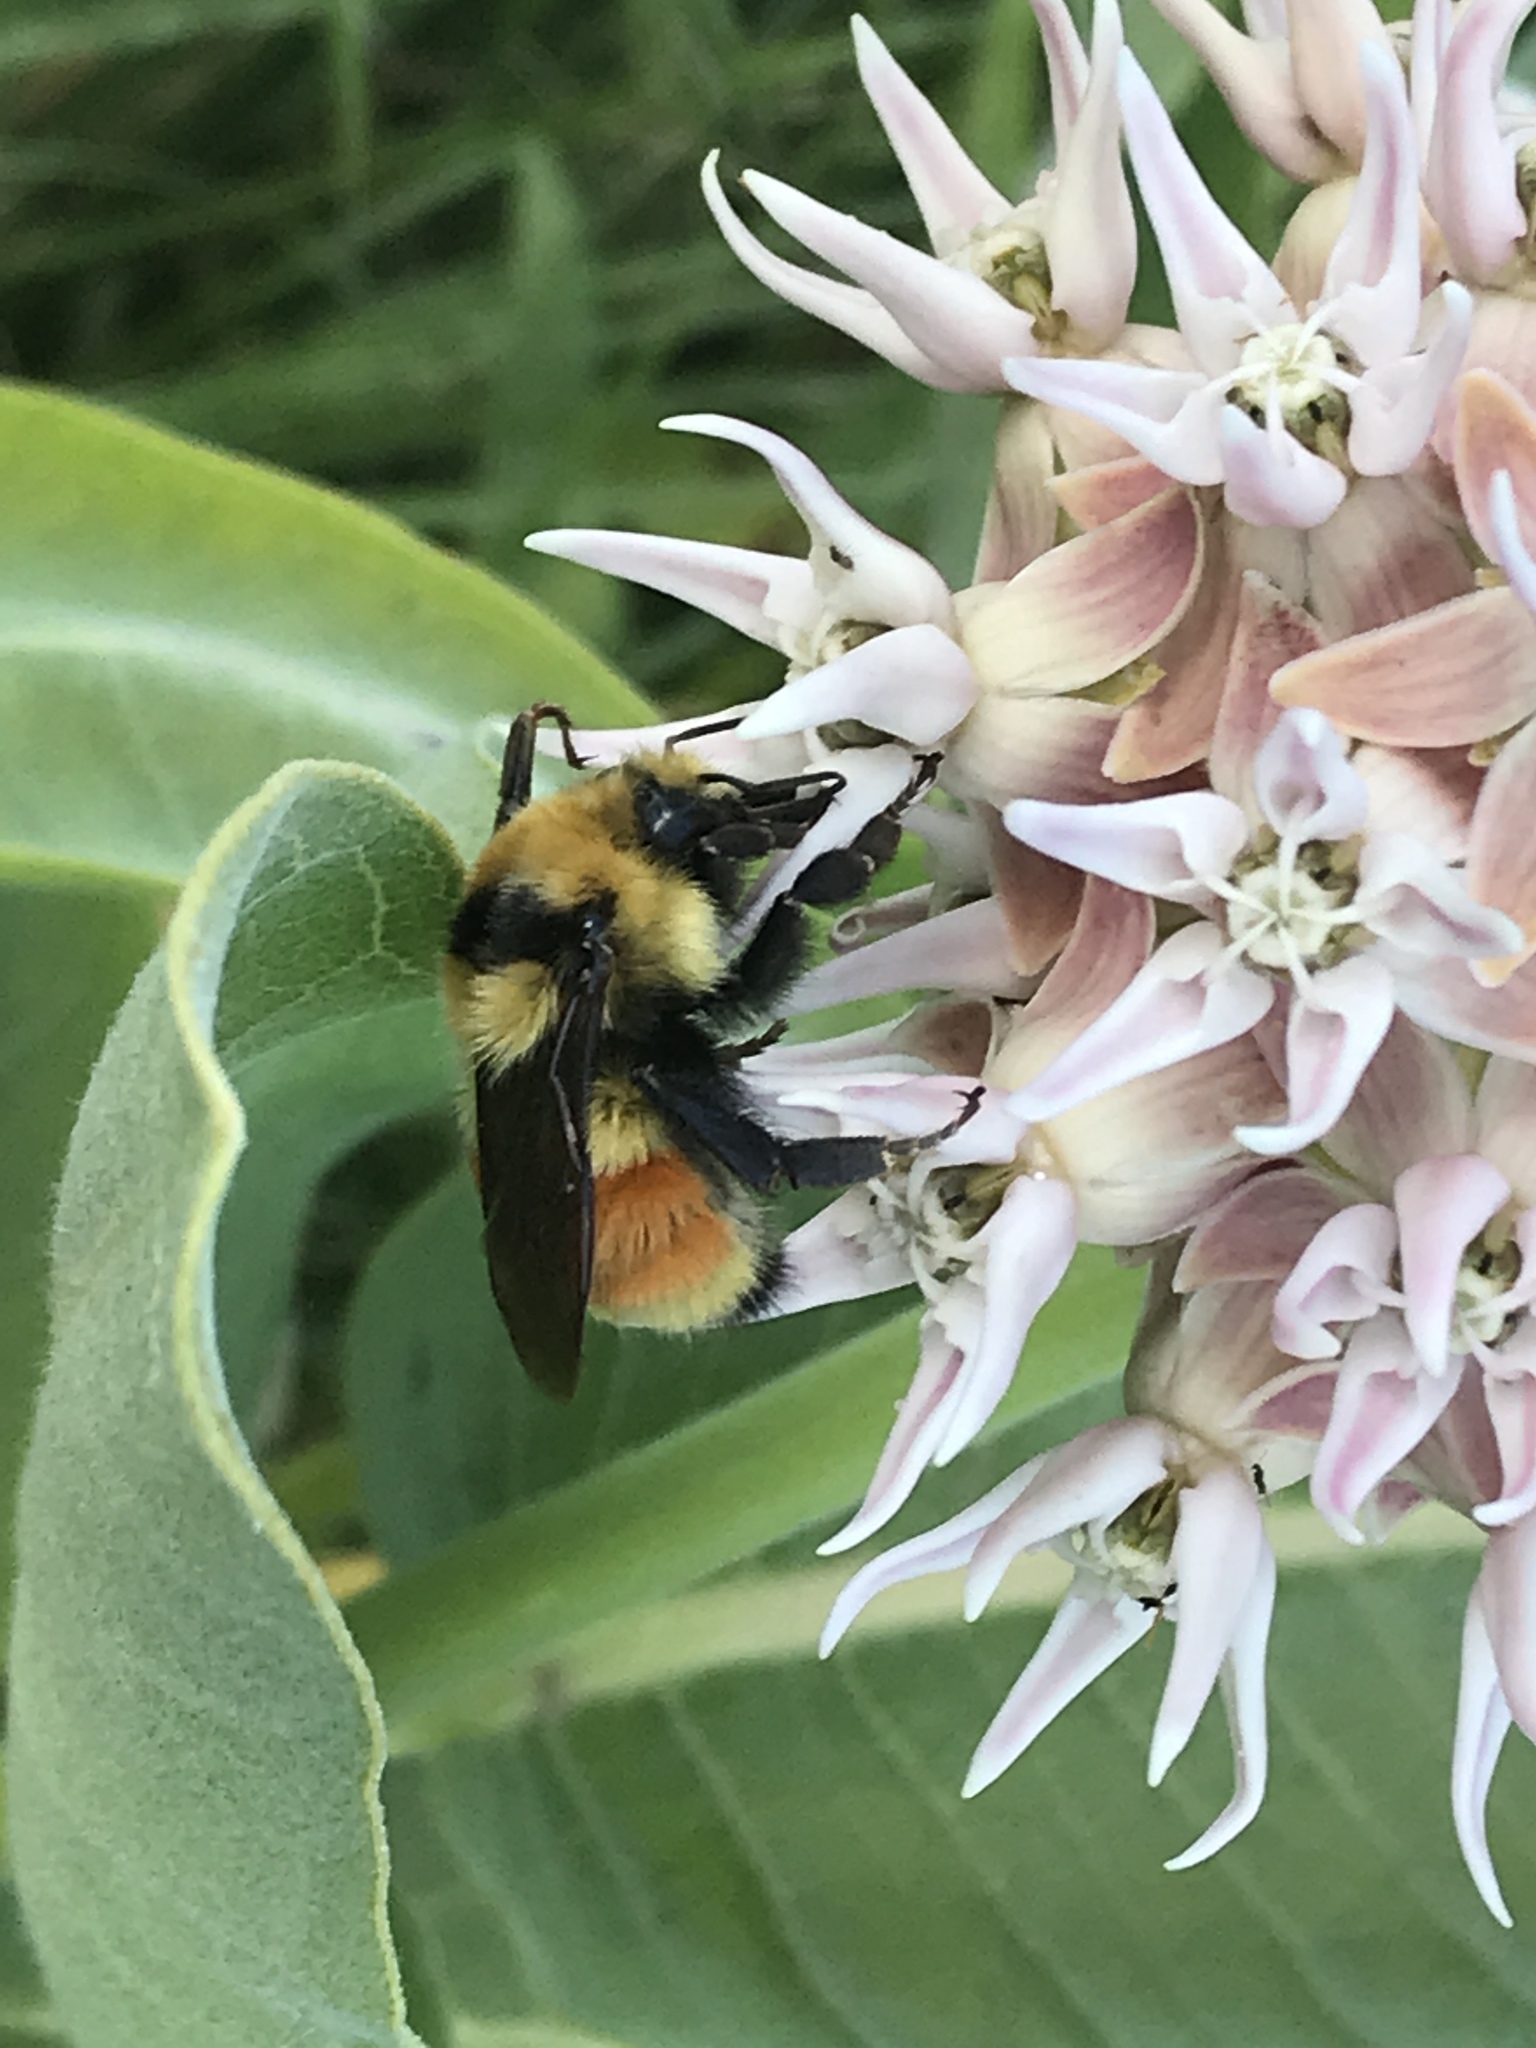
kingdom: Animalia
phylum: Arthropoda
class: Insecta
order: Hymenoptera
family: Apidae
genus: Bombus
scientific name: Bombus huntii
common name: Hunt bumble bee
